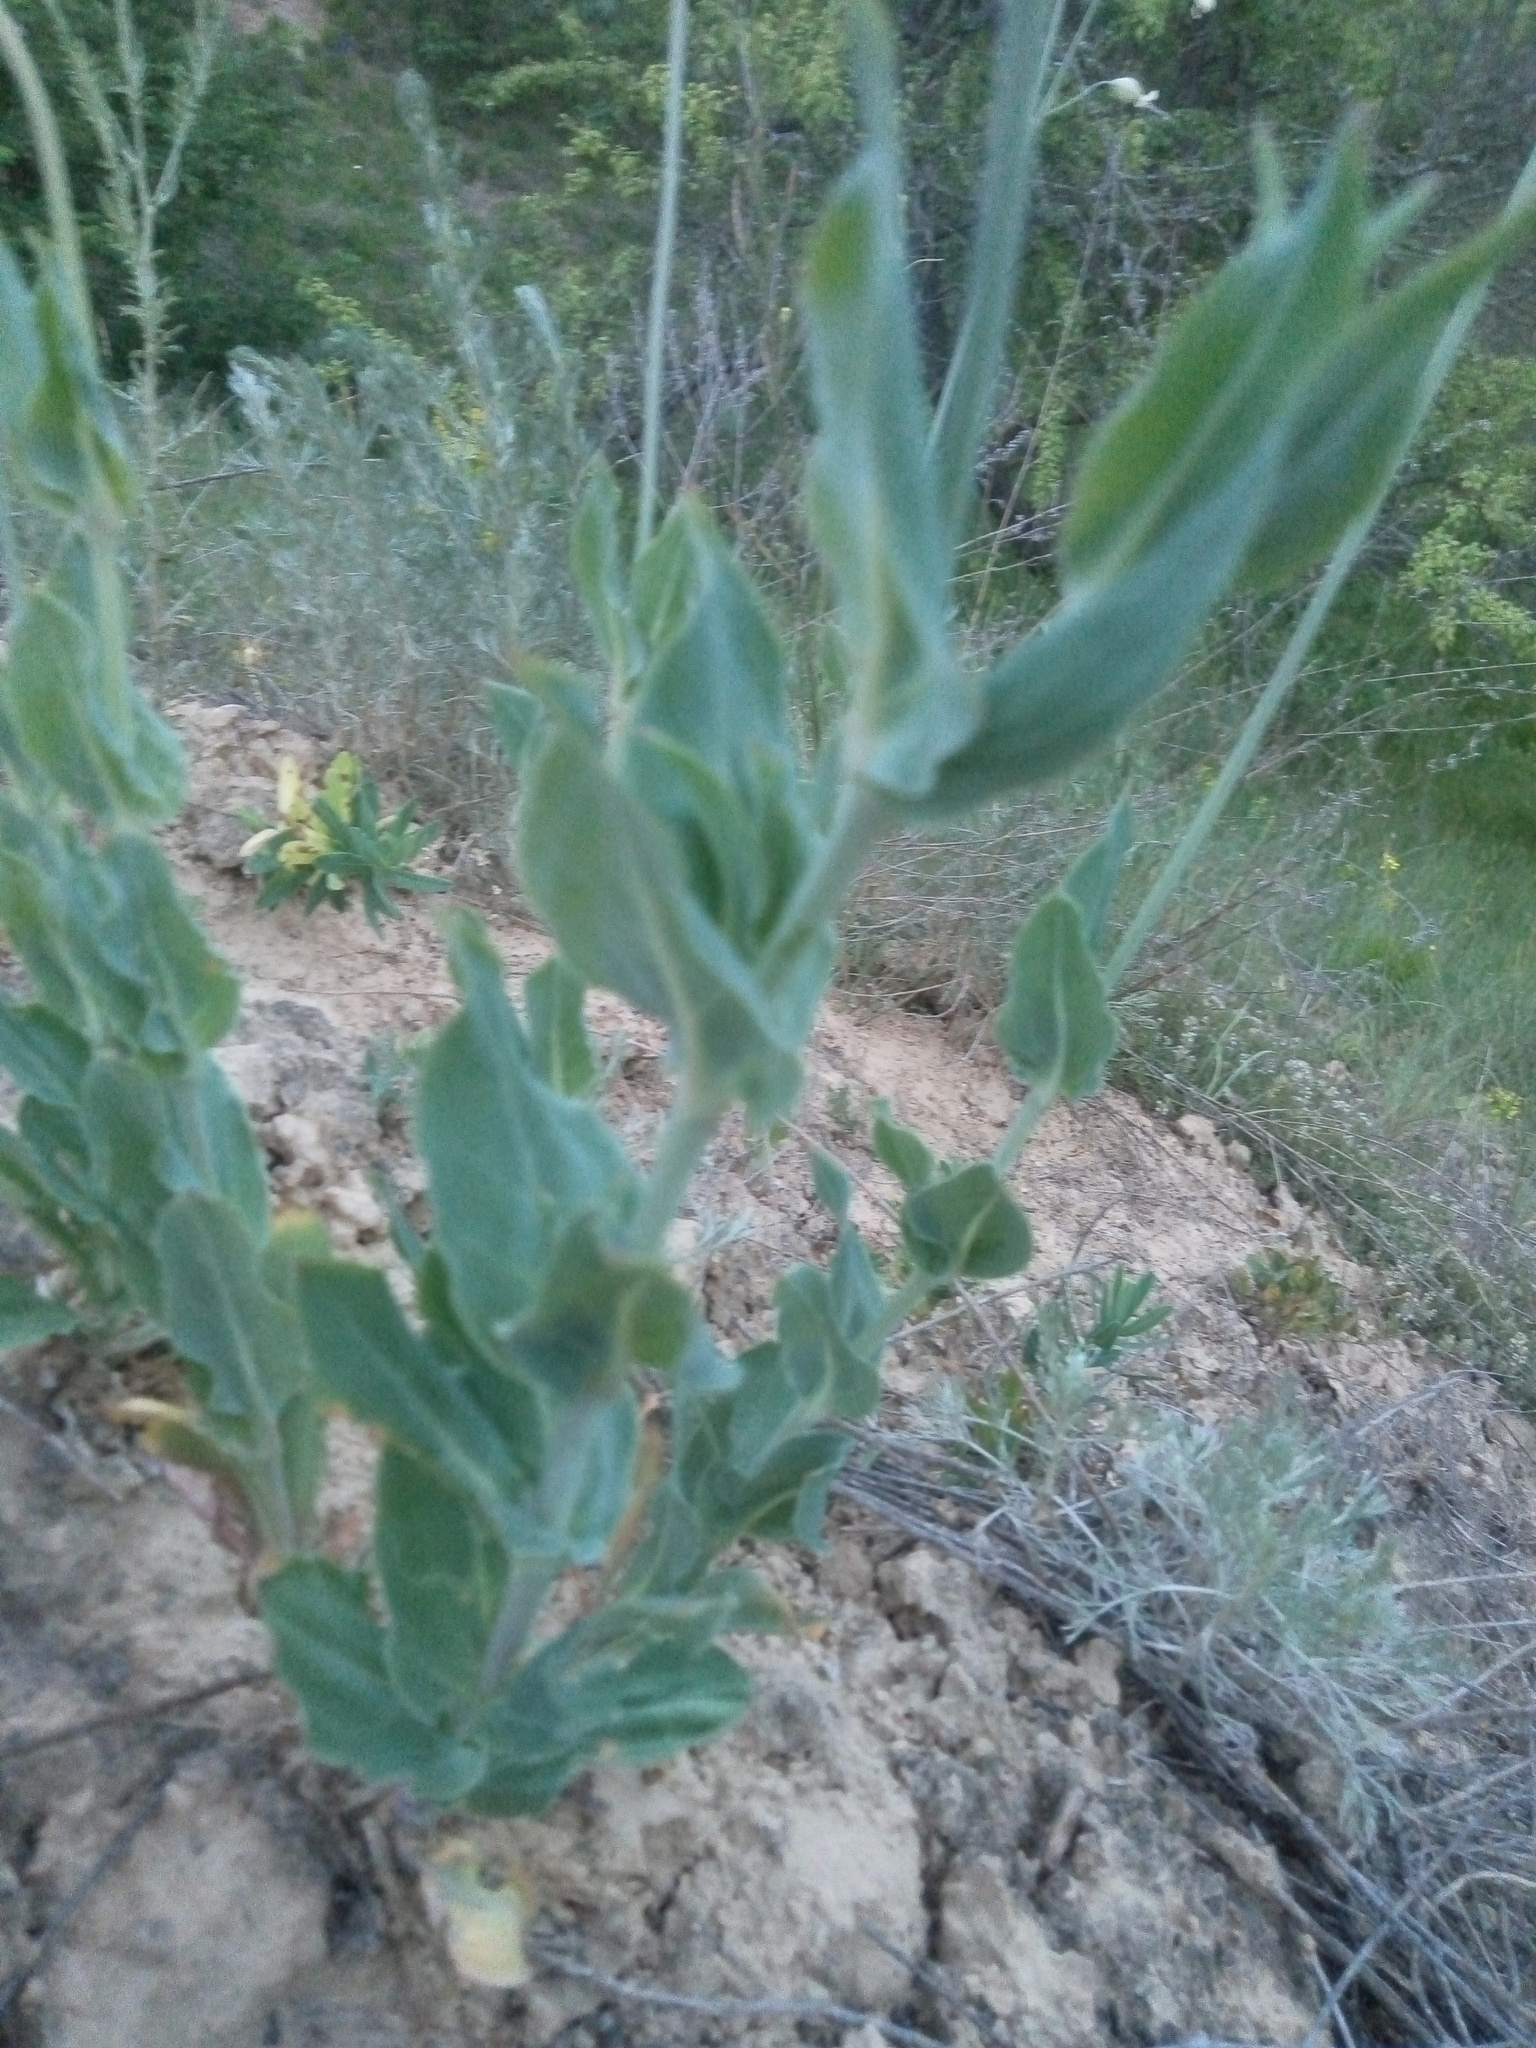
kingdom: Plantae
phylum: Tracheophyta
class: Magnoliopsida
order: Caryophyllales
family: Caryophyllaceae
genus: Silene
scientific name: Silene vulgaris
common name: Bladder campion
